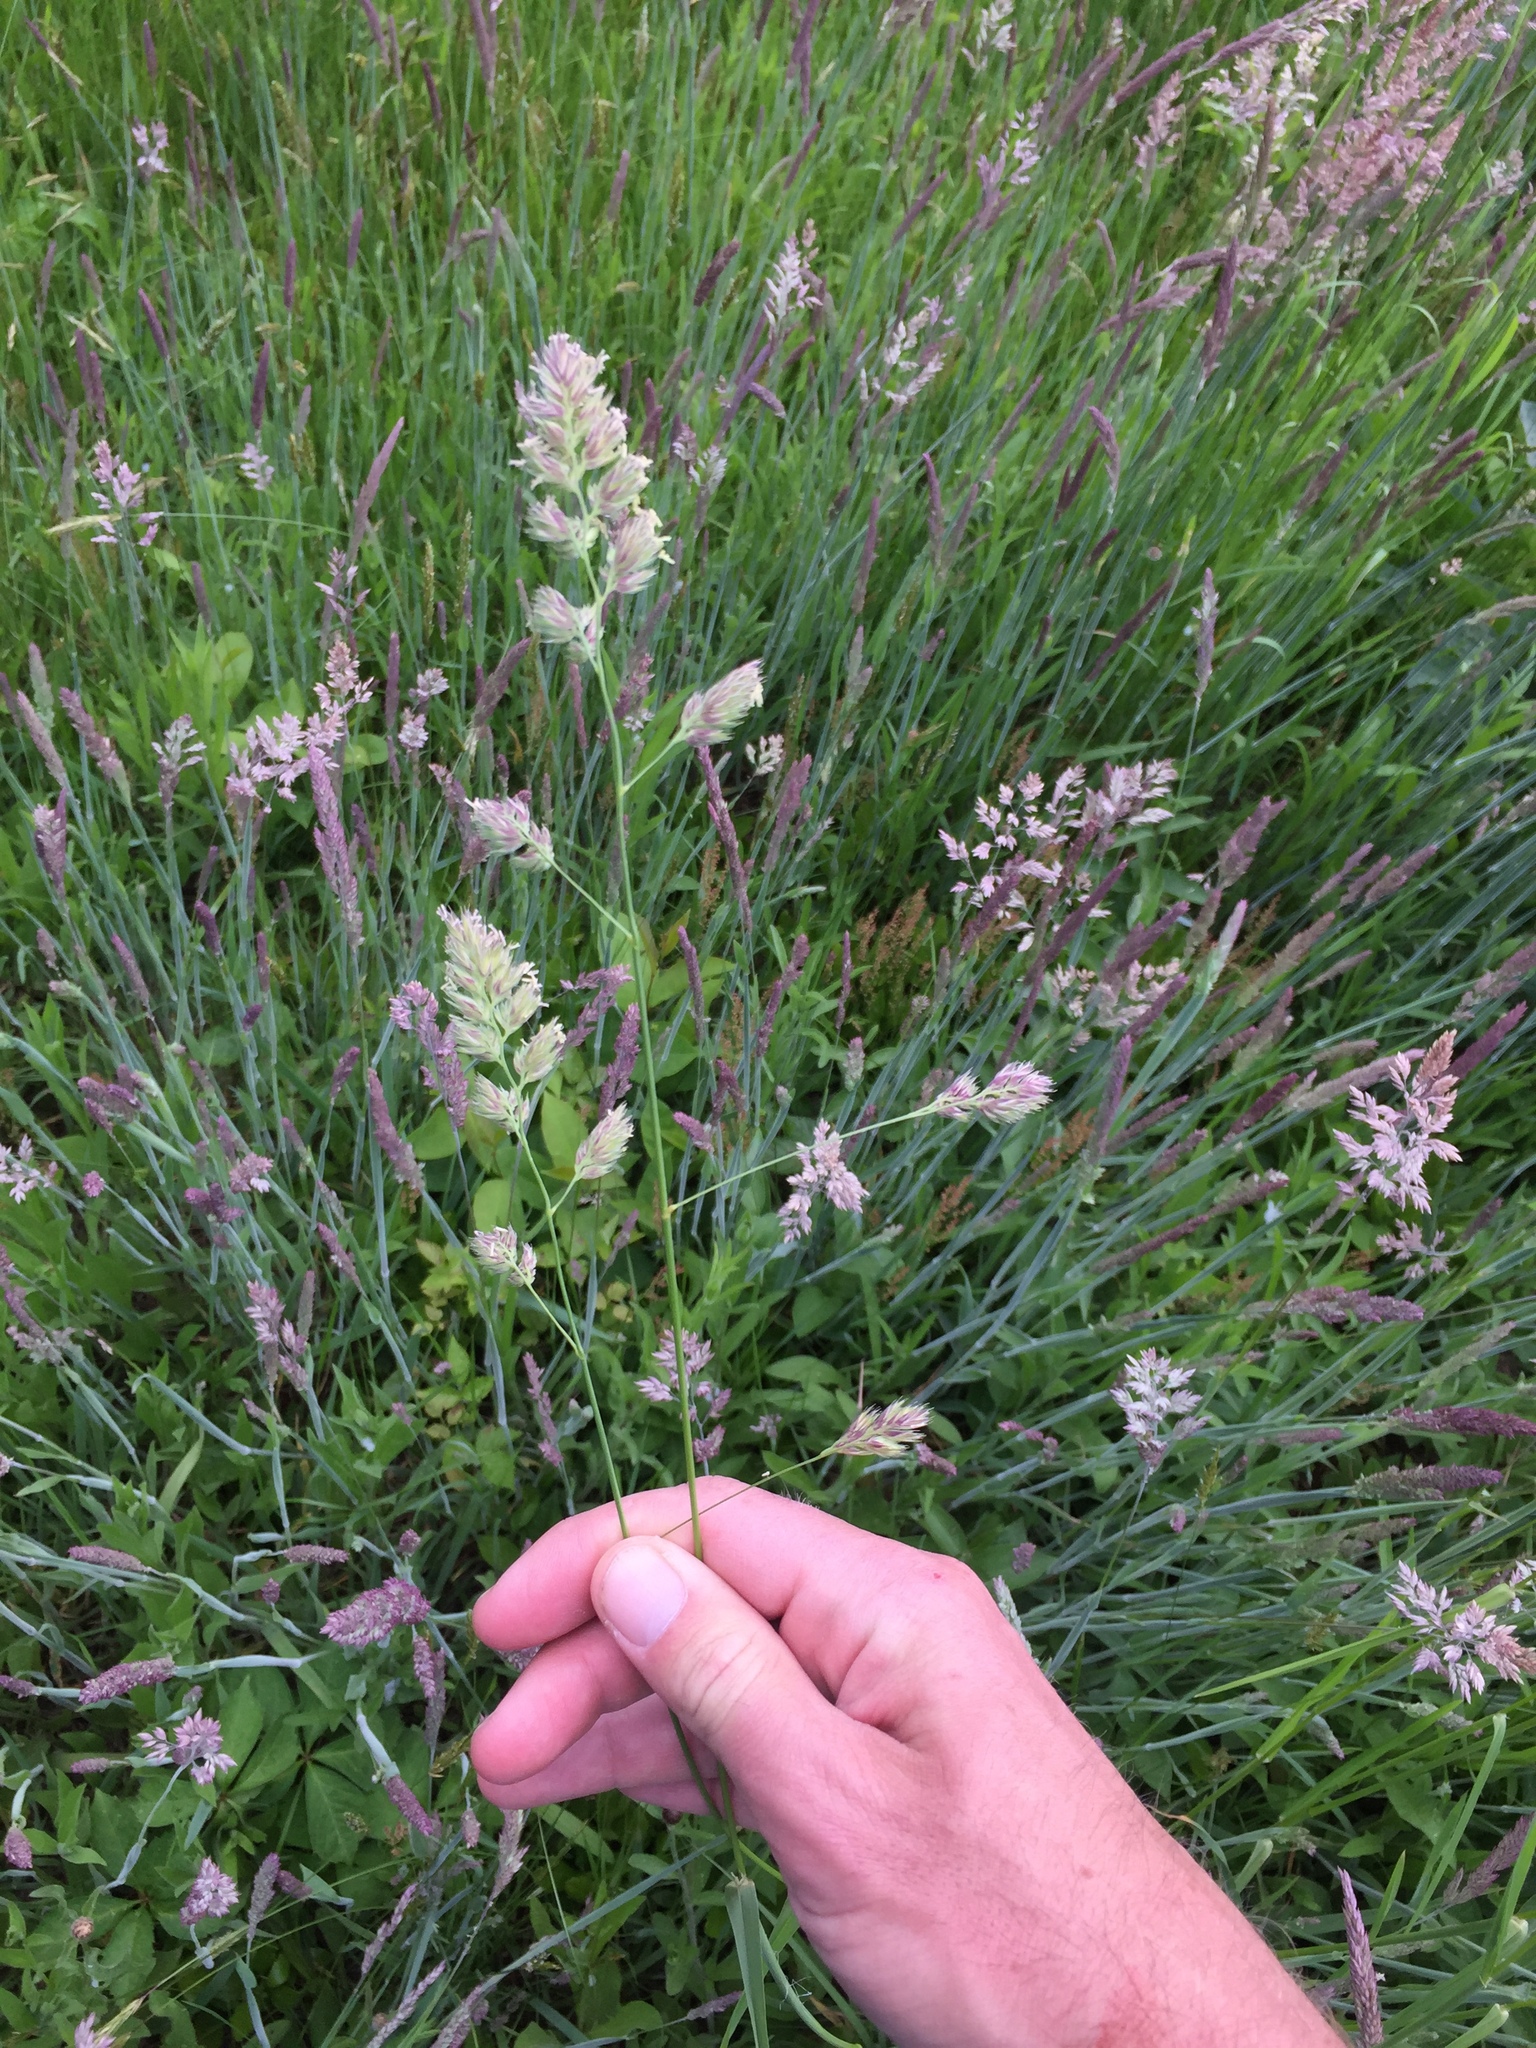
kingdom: Plantae
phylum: Tracheophyta
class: Liliopsida
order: Poales
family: Poaceae
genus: Dactylis
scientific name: Dactylis glomerata
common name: Orchardgrass
